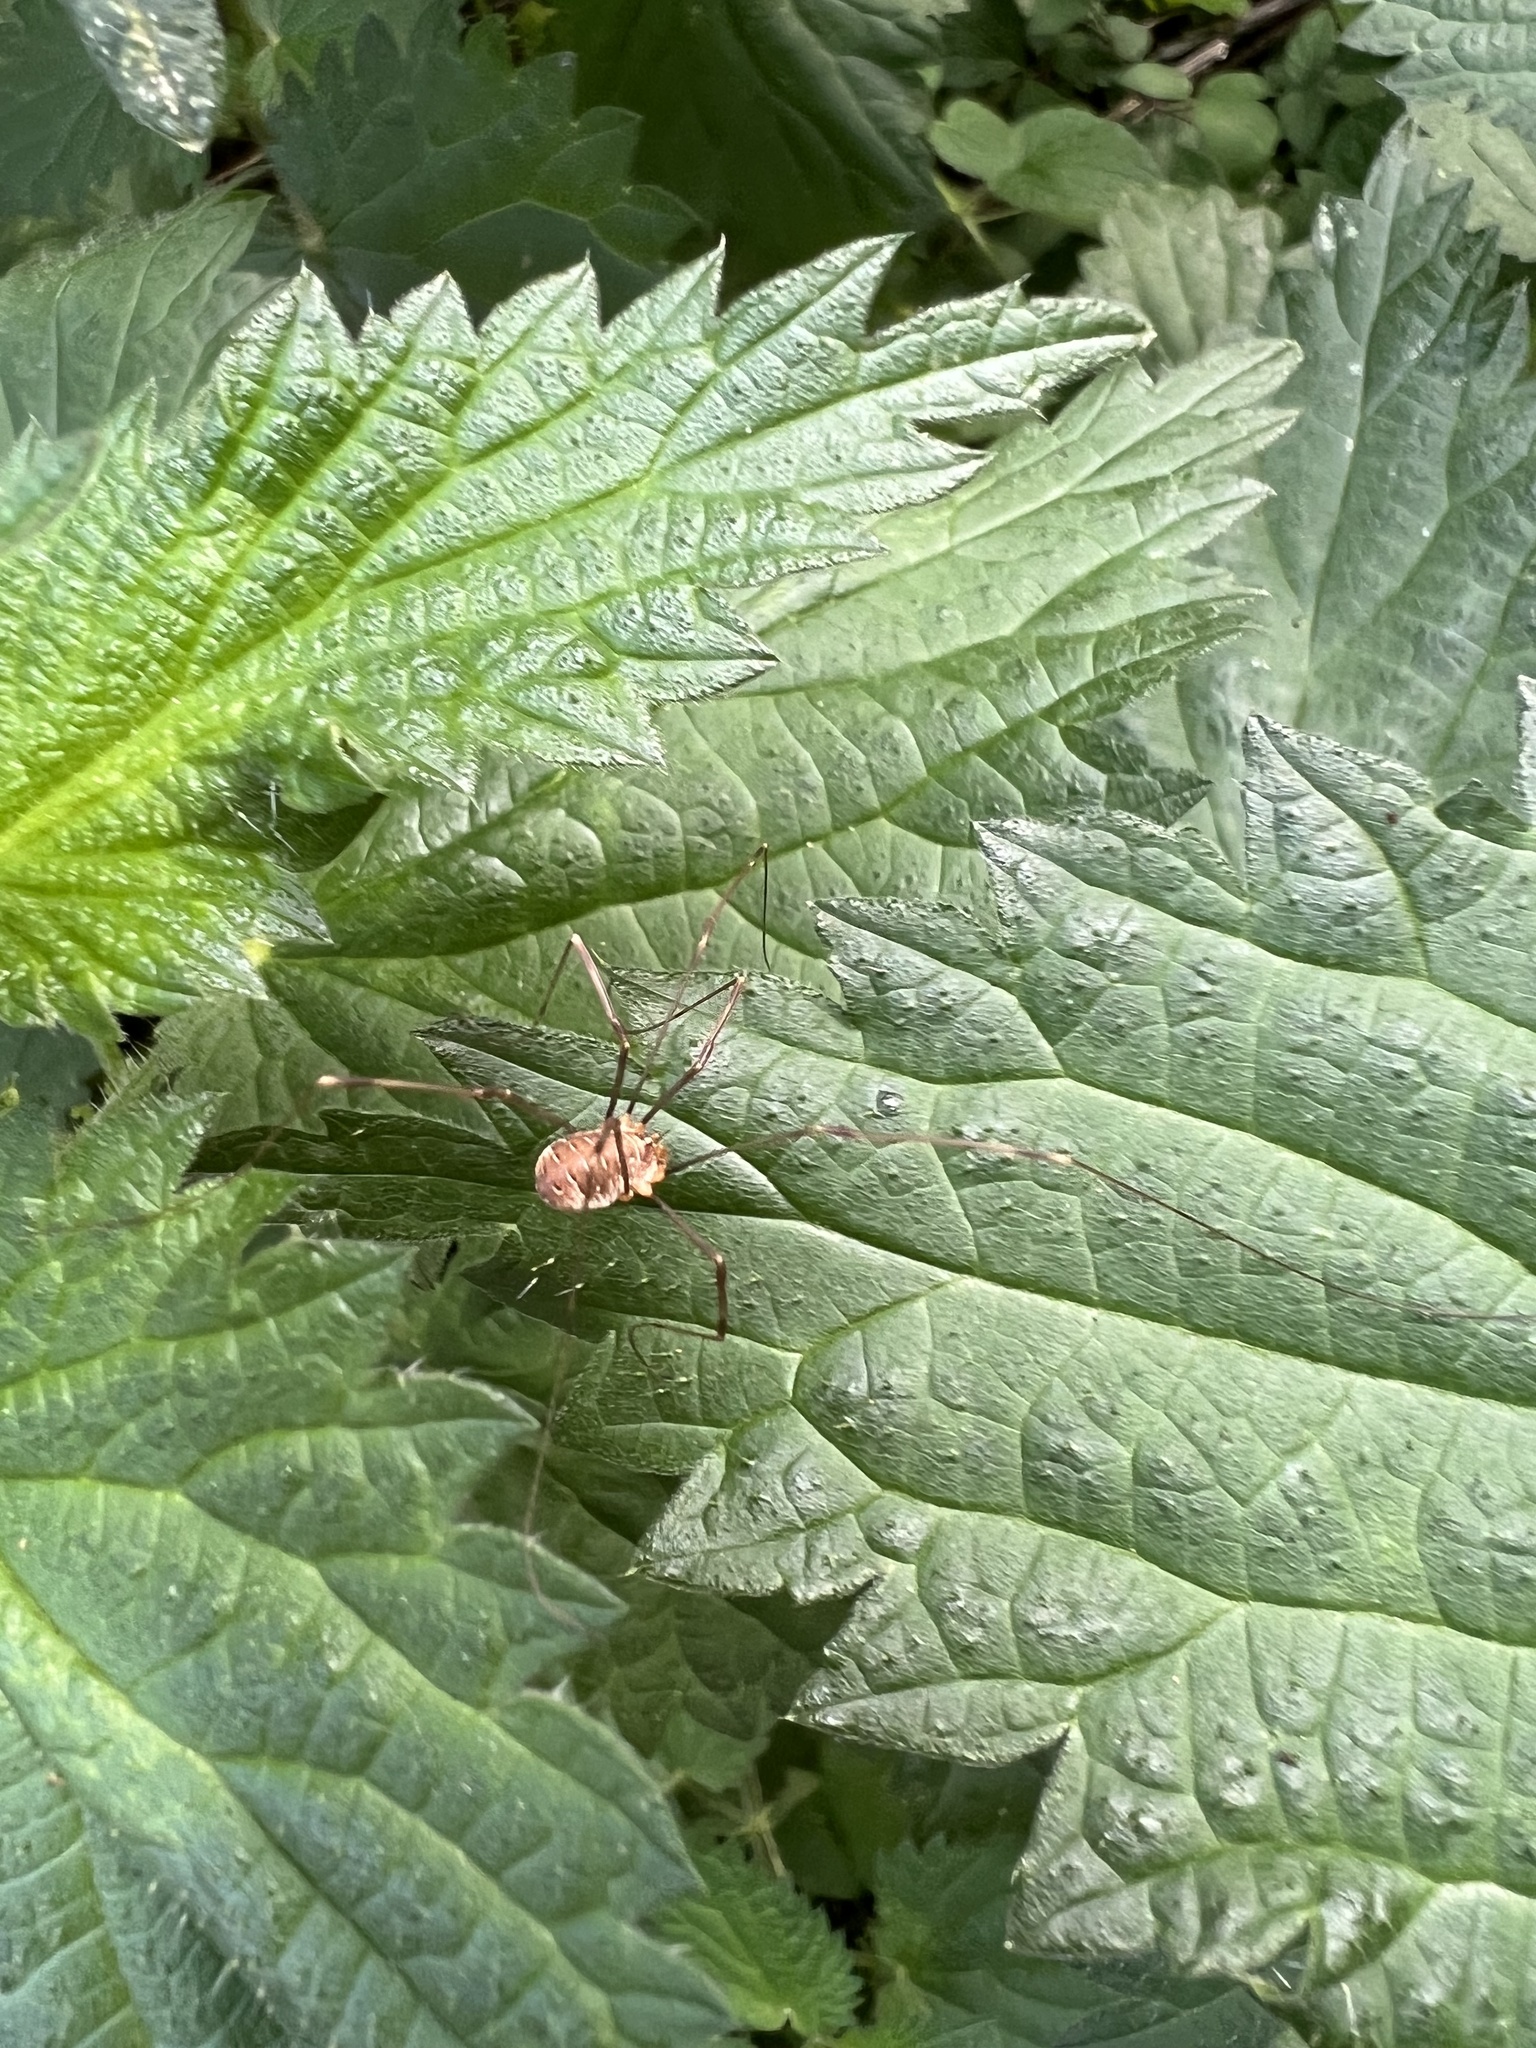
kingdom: Animalia
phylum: Arthropoda
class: Arachnida
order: Opiliones
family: Phalangiidae
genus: Opilio
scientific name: Opilio canestrinii
